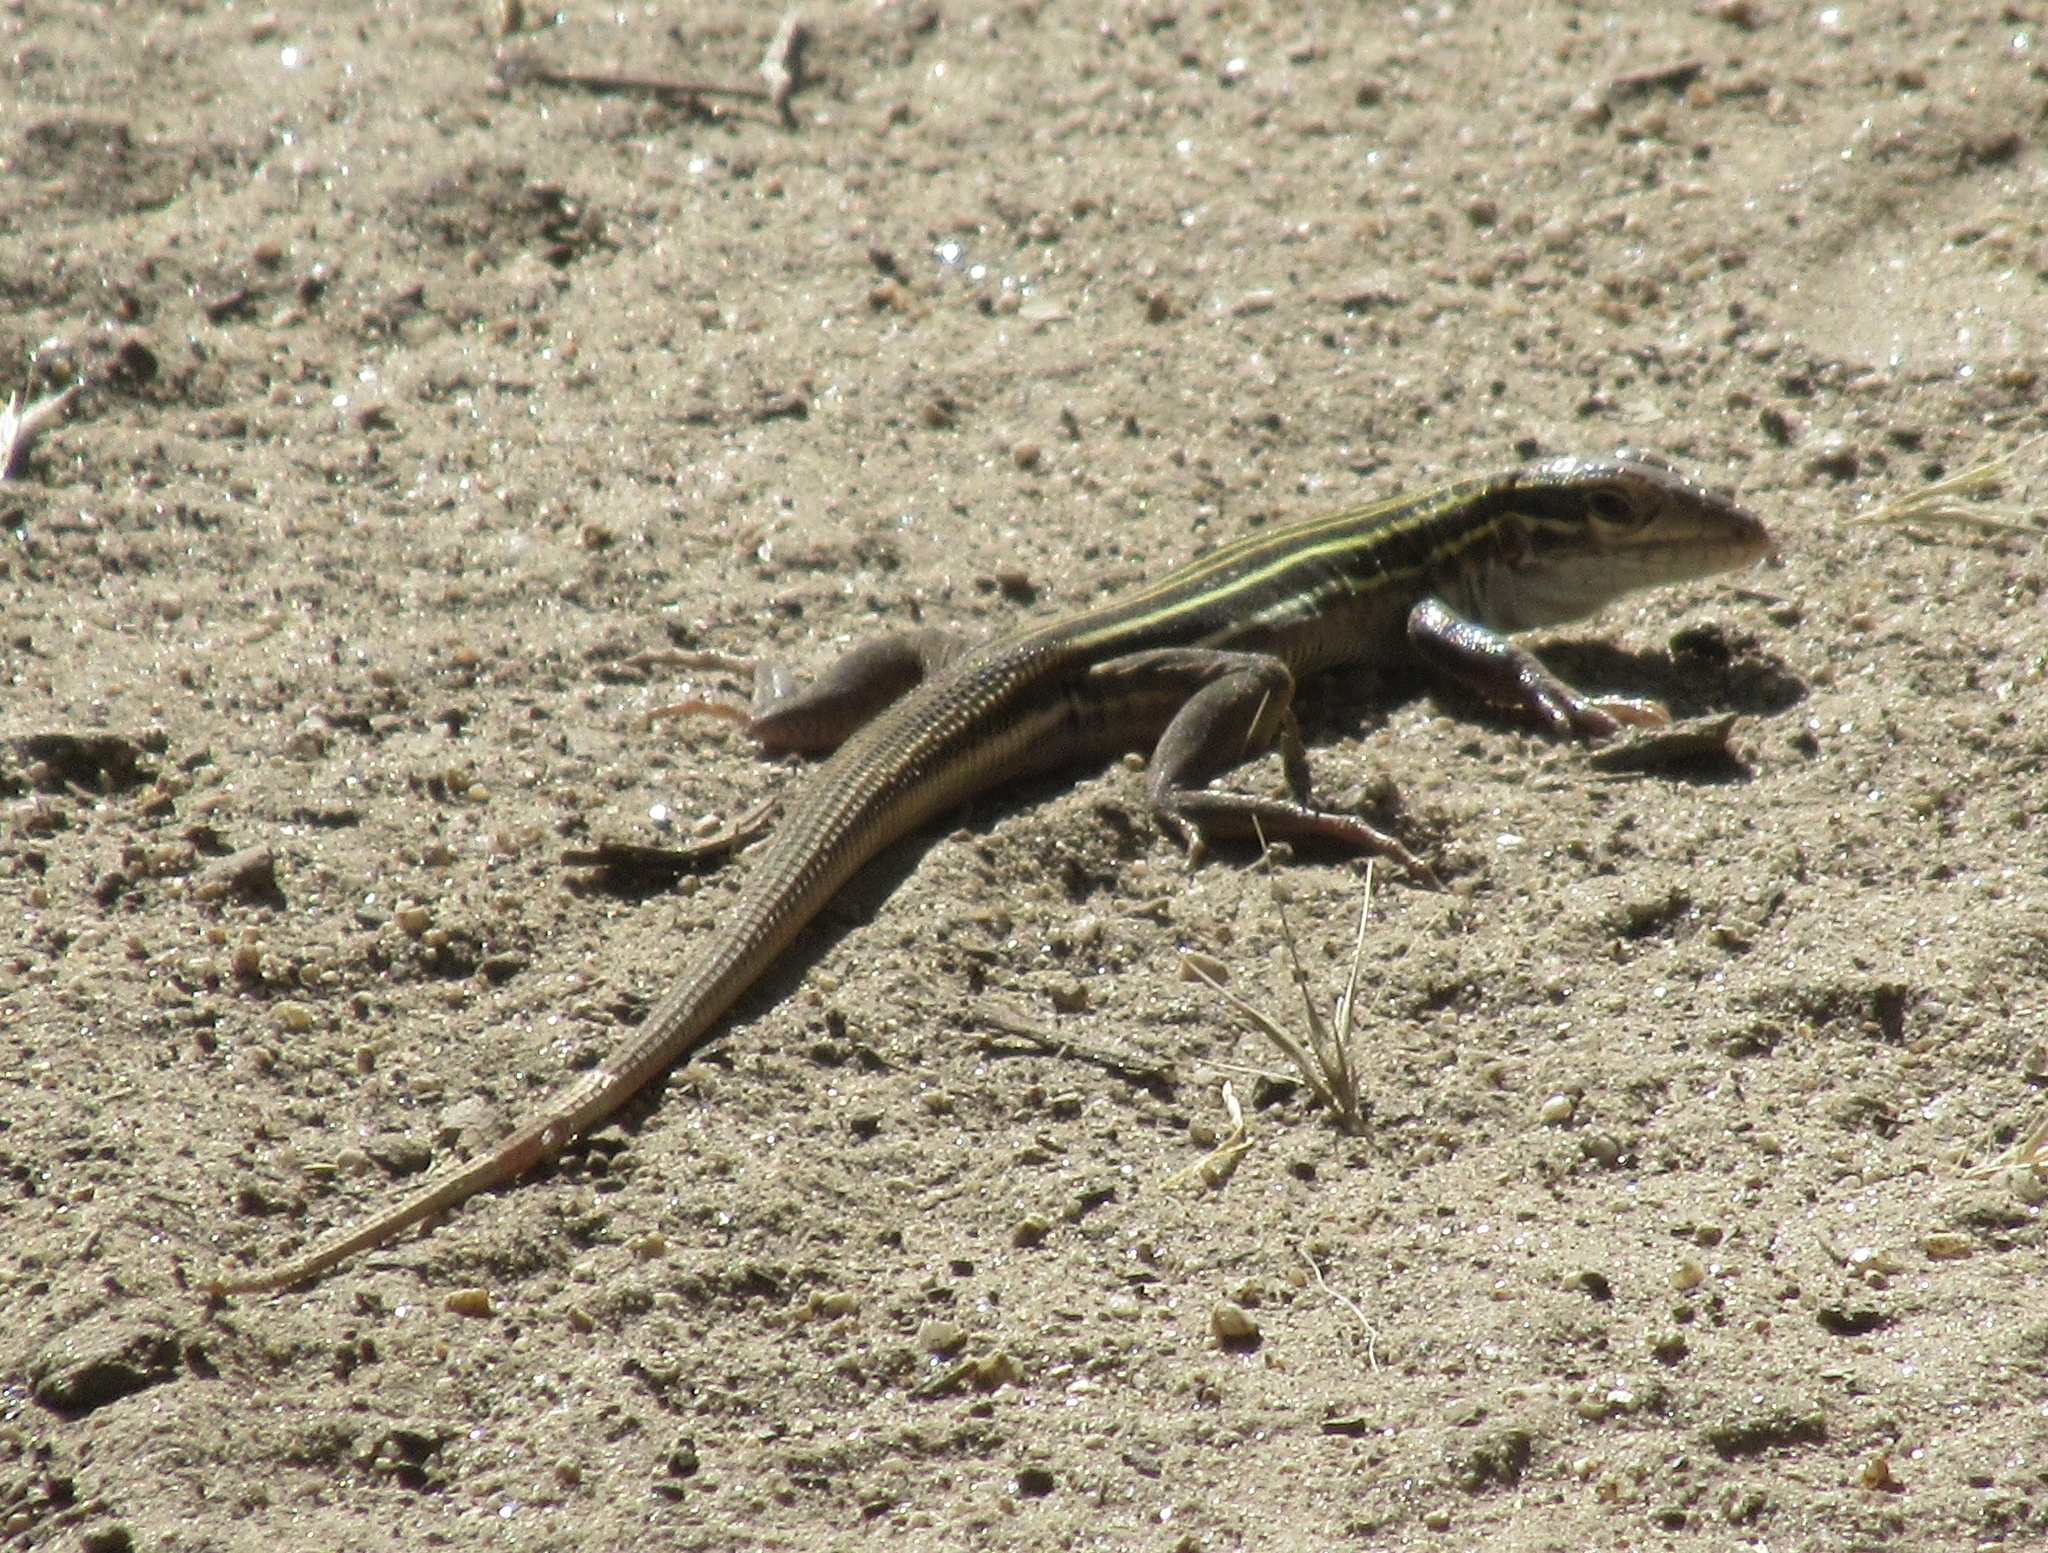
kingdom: Animalia
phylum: Chordata
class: Squamata
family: Teiidae
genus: Aspidoscelis
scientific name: Aspidoscelis uniparens
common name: Desert grassland whiptail
